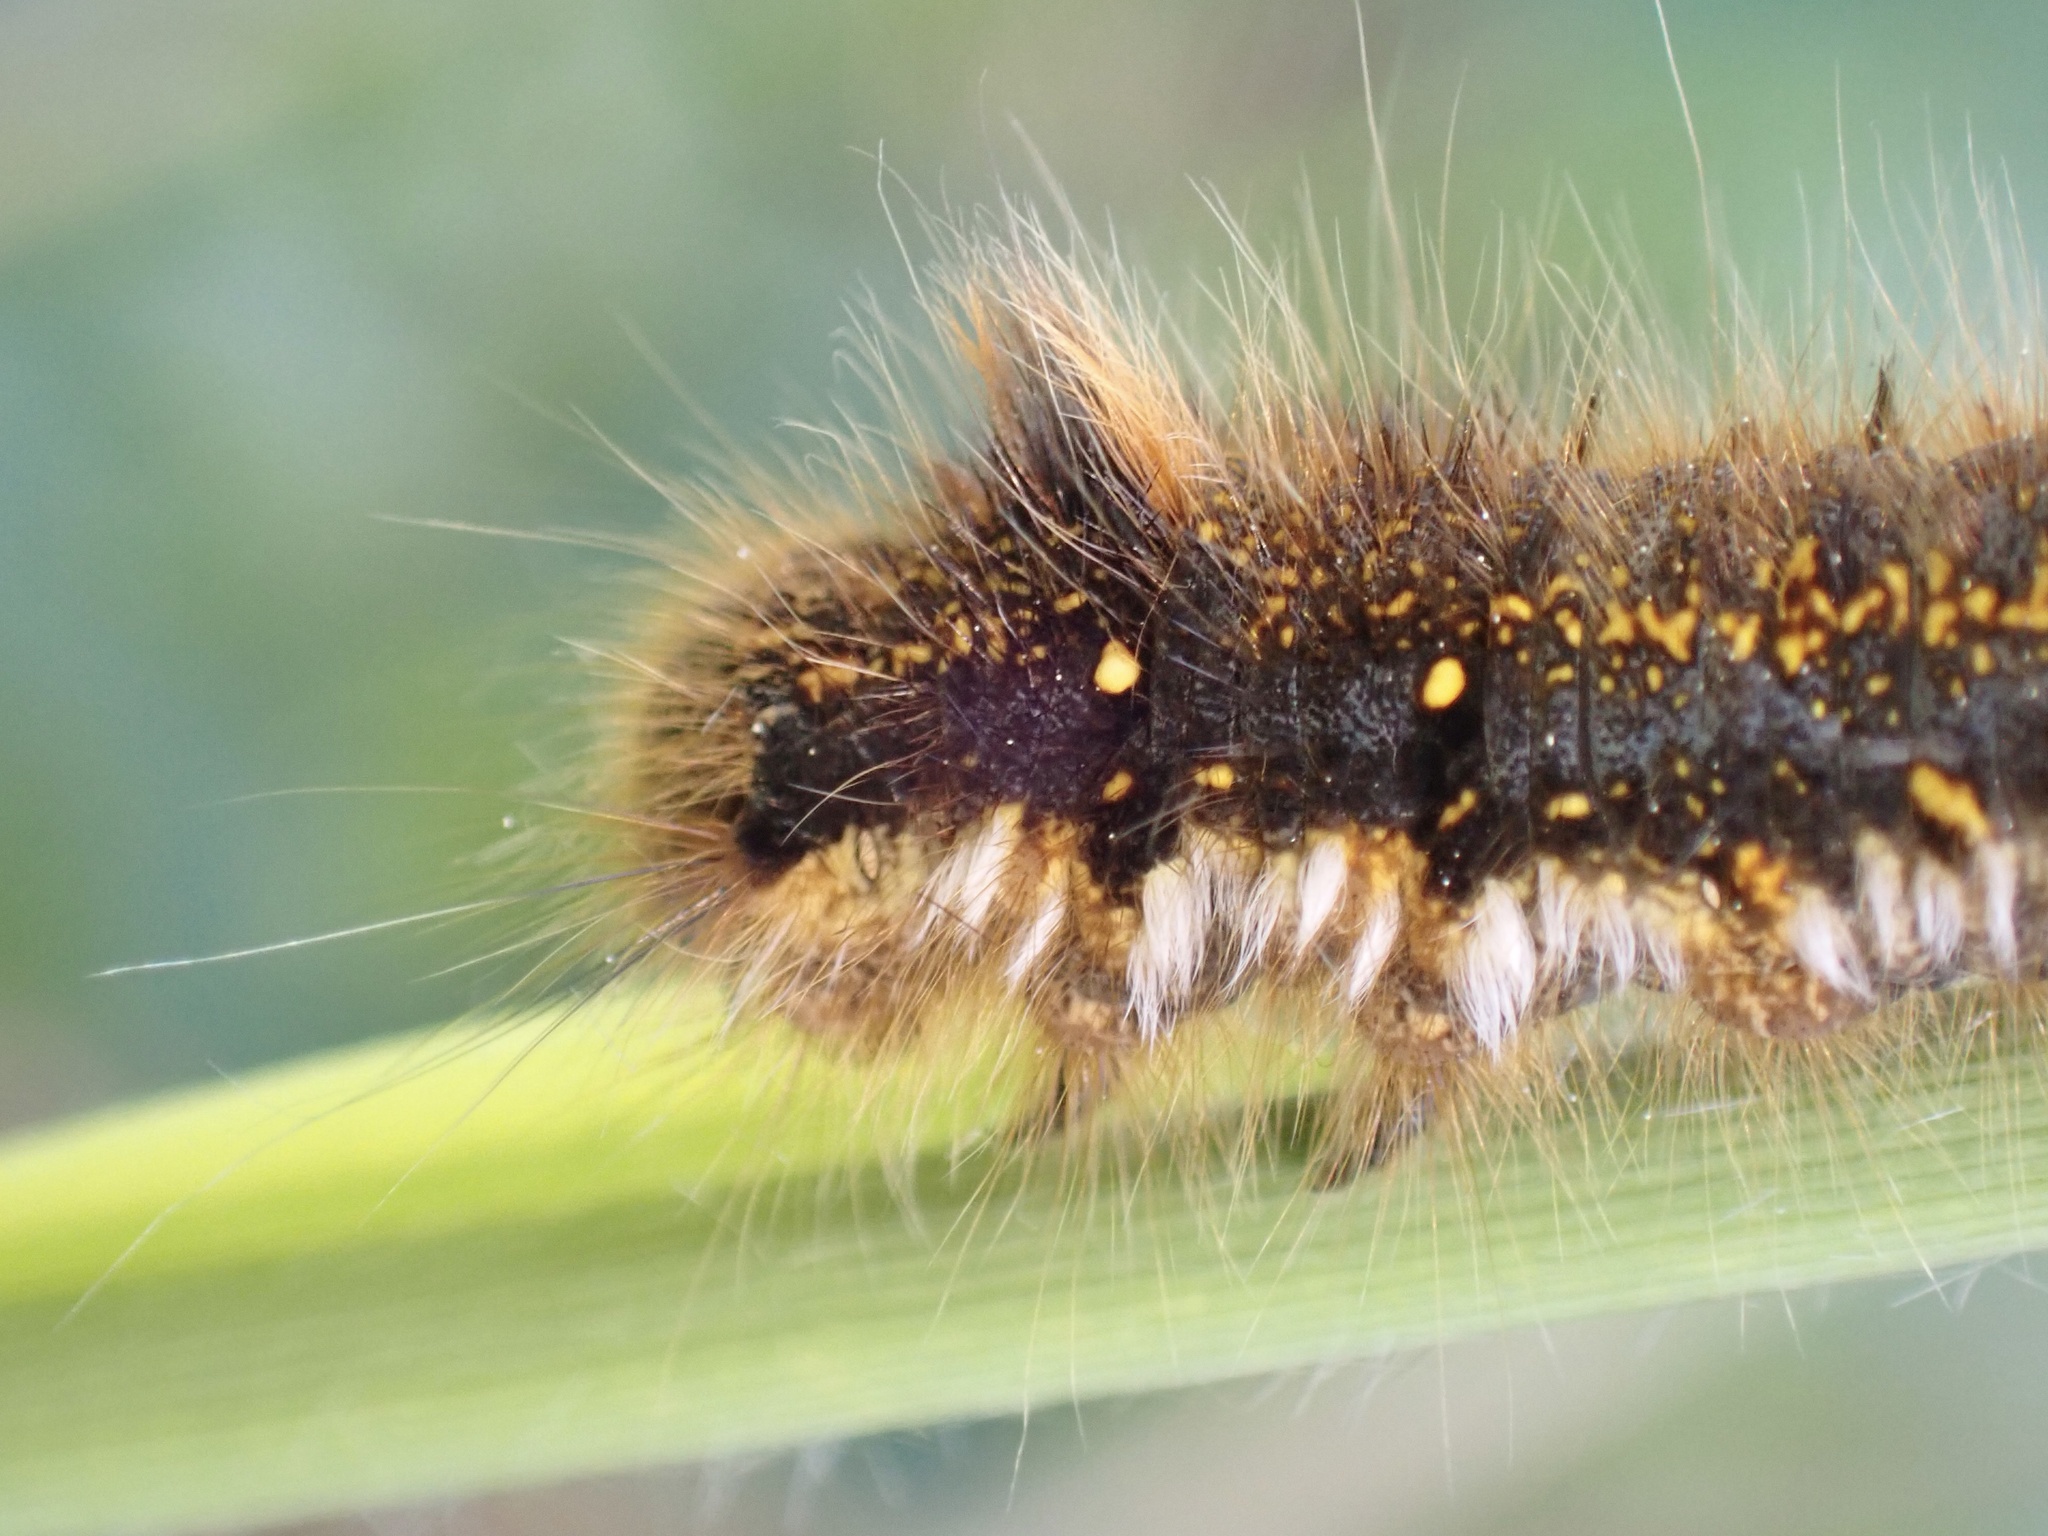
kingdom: Animalia
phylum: Arthropoda
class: Insecta
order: Lepidoptera
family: Lasiocampidae
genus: Euthrix
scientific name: Euthrix potatoria
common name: Drinker
